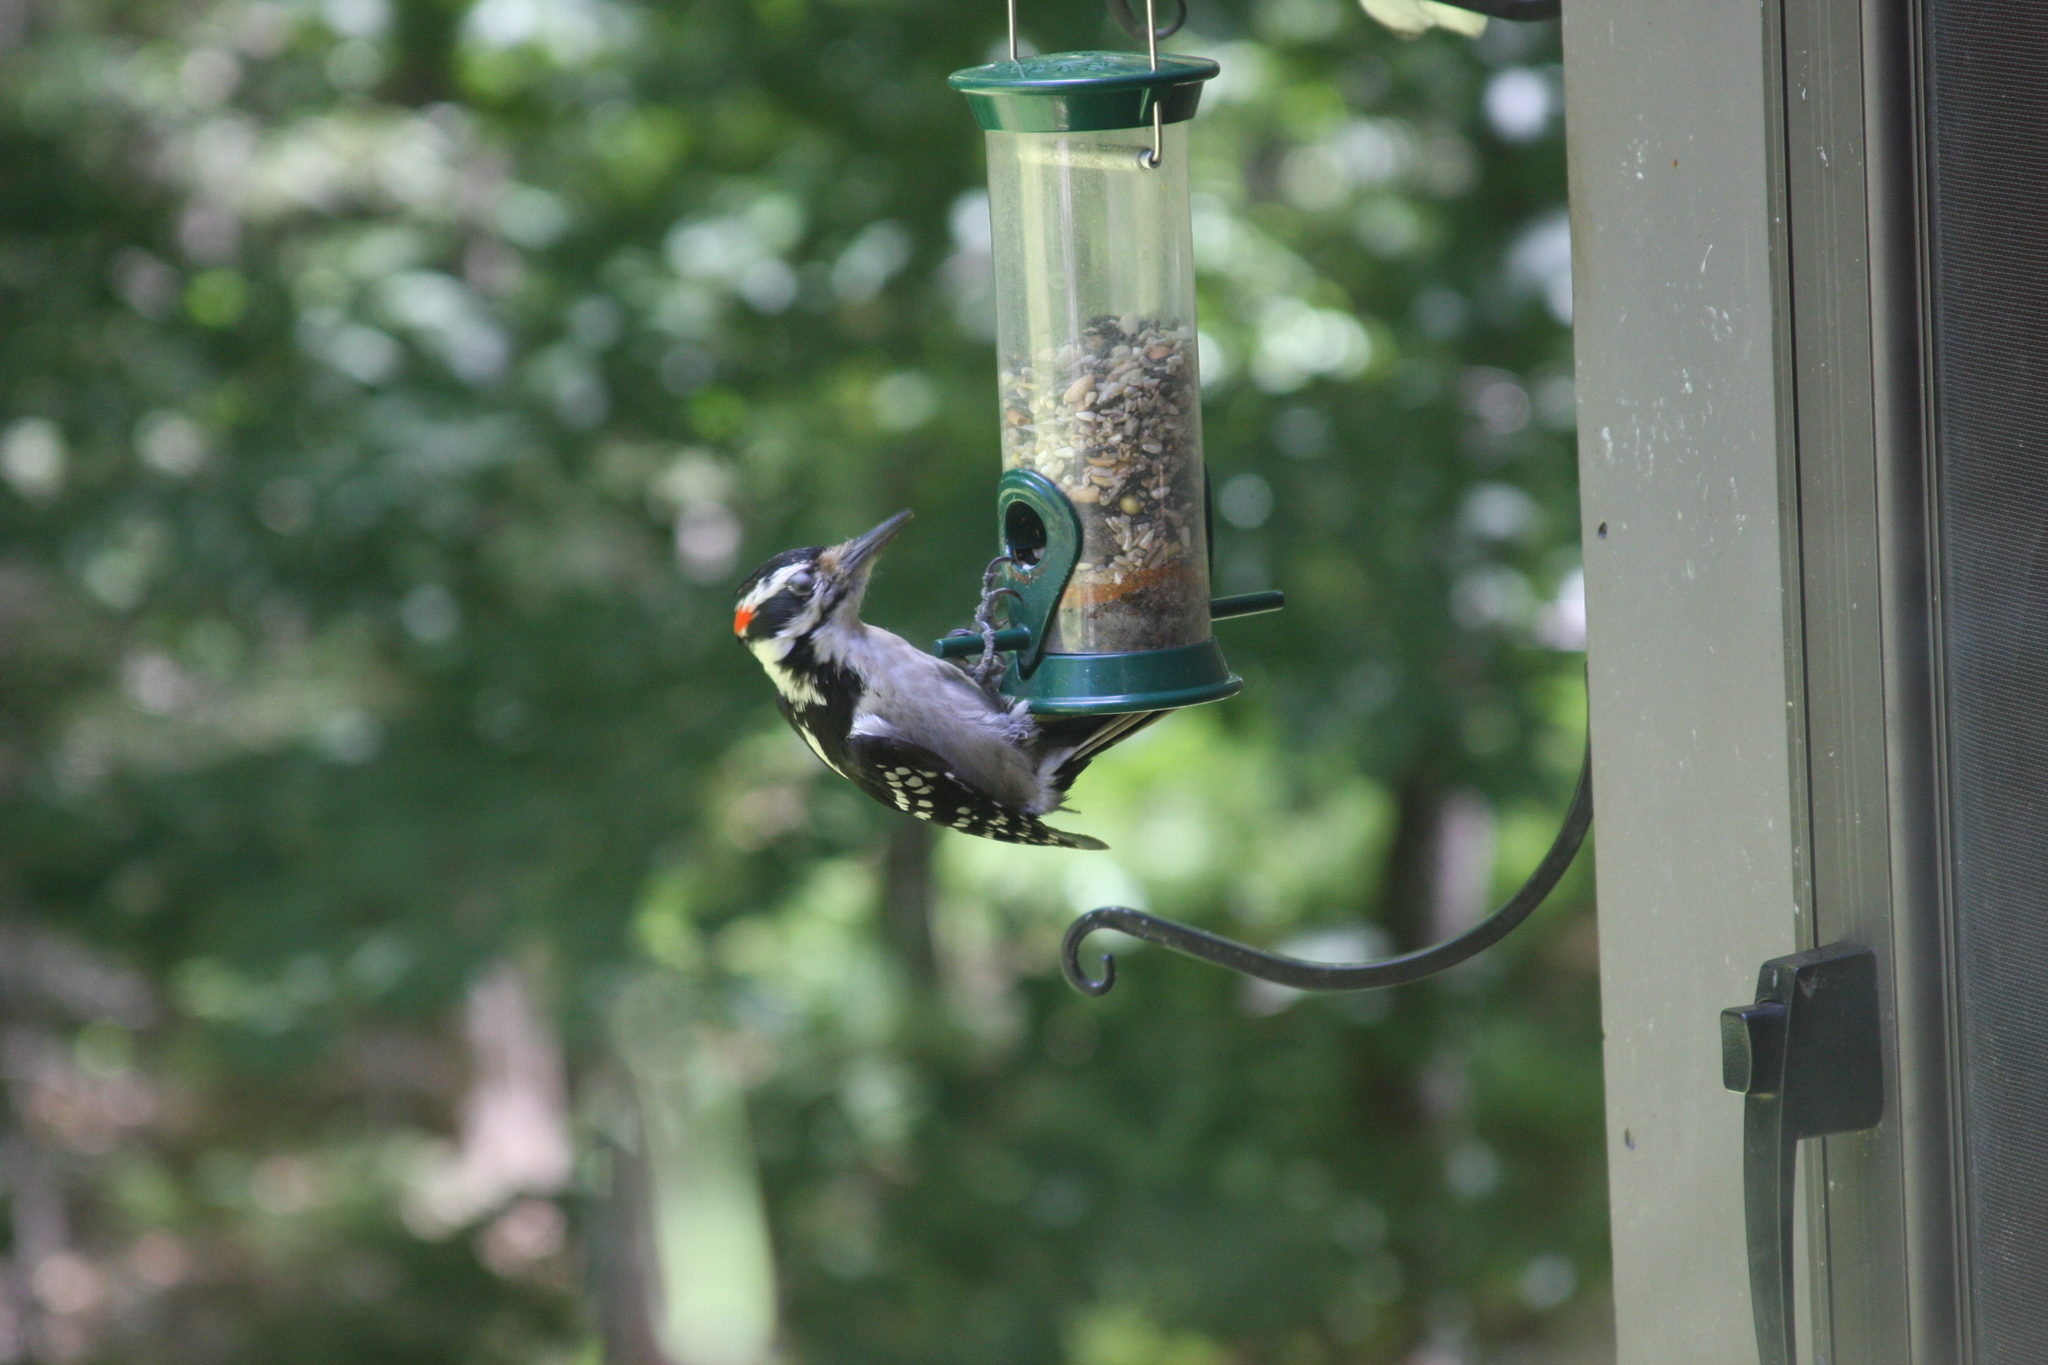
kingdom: Animalia
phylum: Chordata
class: Aves
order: Piciformes
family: Picidae
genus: Leuconotopicus
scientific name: Leuconotopicus villosus
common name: Hairy woodpecker
